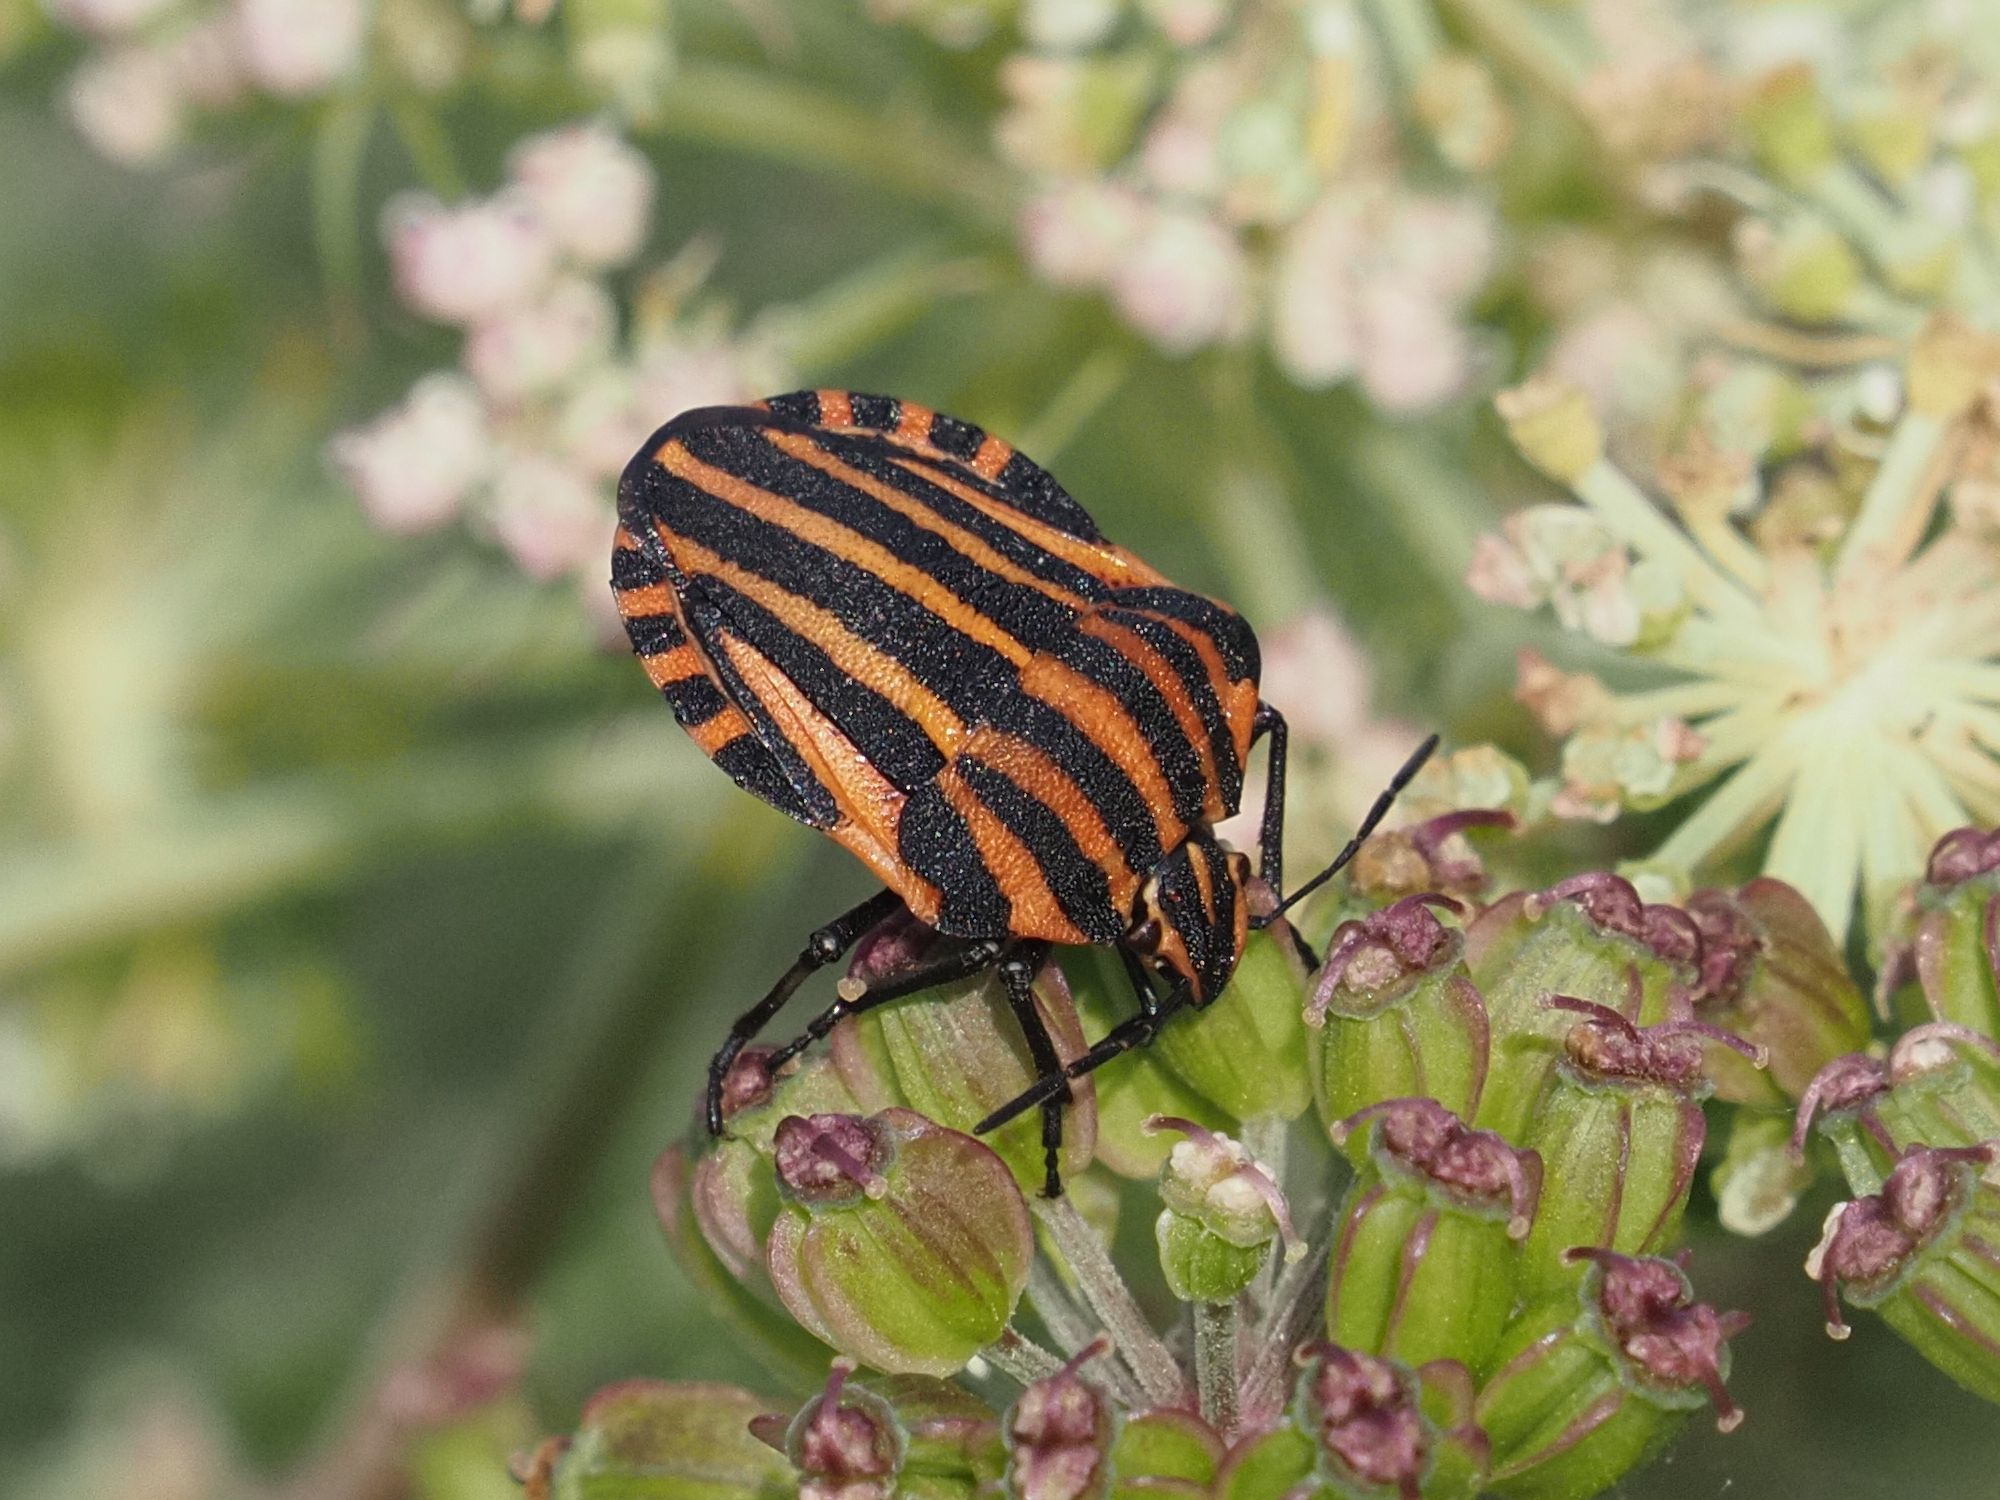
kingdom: Animalia
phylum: Arthropoda
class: Insecta
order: Hemiptera
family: Pentatomidae
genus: Graphosoma
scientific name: Graphosoma italicum
